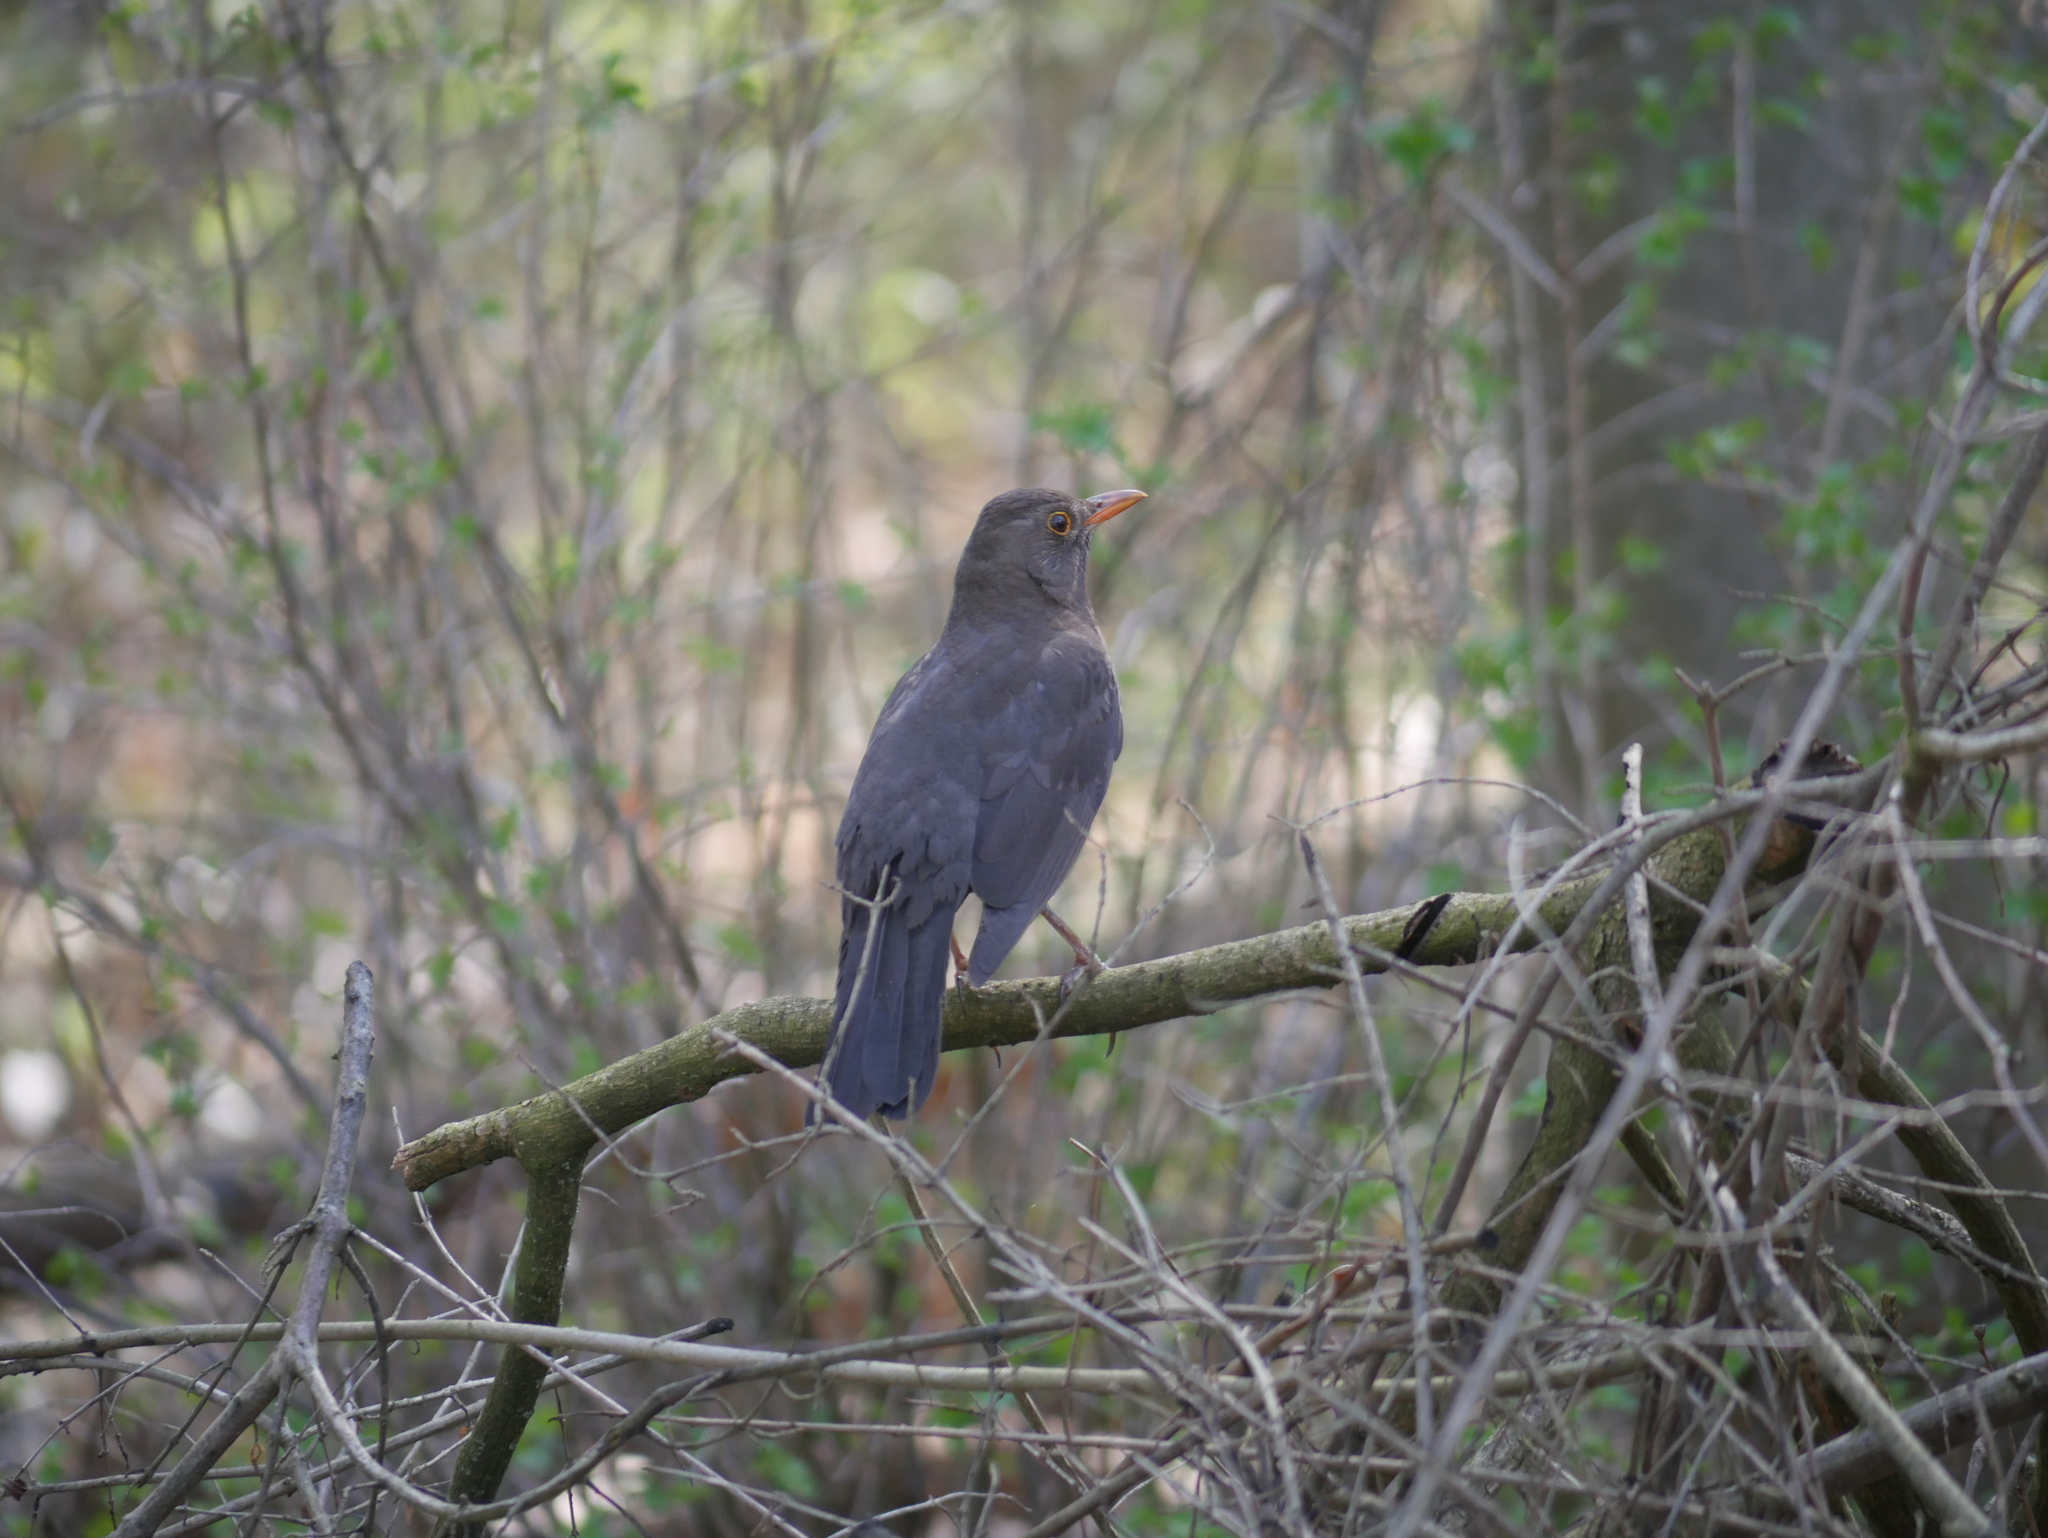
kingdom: Animalia
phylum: Chordata
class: Aves
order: Passeriformes
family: Turdidae
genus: Turdus
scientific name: Turdus merula
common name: Common blackbird
